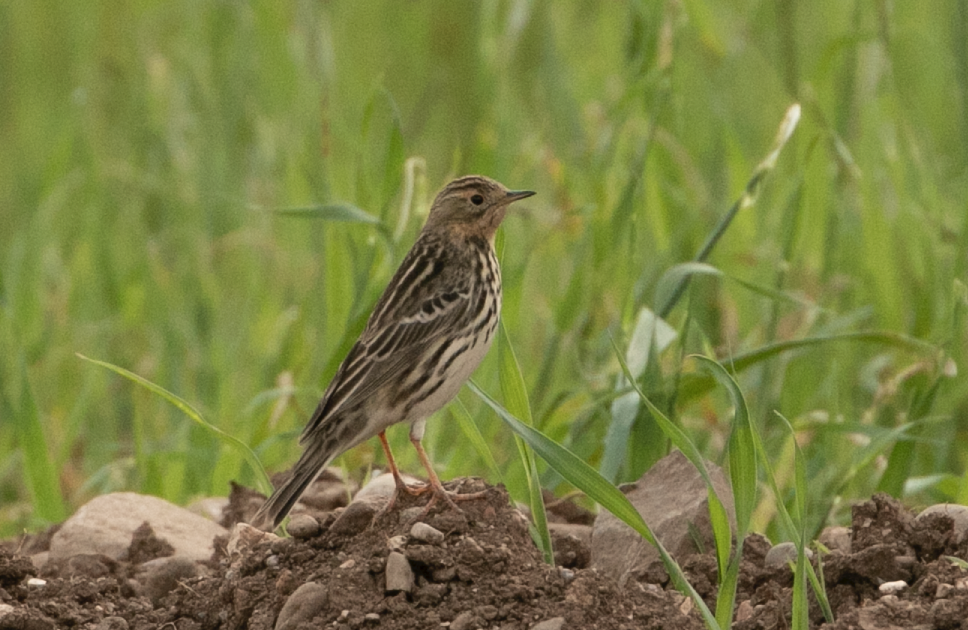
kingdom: Animalia
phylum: Chordata
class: Aves
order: Passeriformes
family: Motacillidae
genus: Anthus
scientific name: Anthus cervinus
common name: Red-throated pipit
